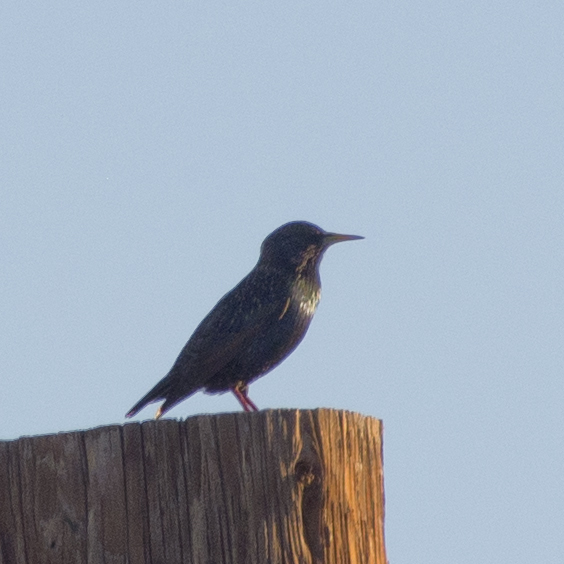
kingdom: Animalia
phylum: Chordata
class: Aves
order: Passeriformes
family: Sturnidae
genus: Sturnus
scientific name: Sturnus vulgaris
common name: Common starling
